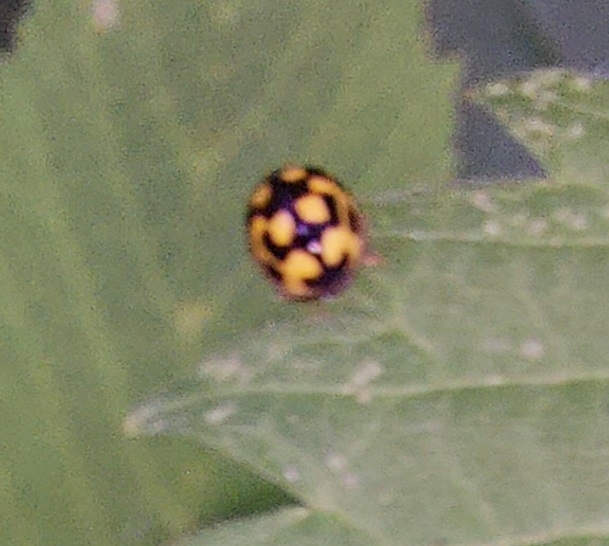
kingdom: Animalia
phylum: Arthropoda
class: Insecta
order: Coleoptera
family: Coccinellidae
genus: Propylaea
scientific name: Propylaea quatuordecimpunctata
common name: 14-spotted ladybird beetle
